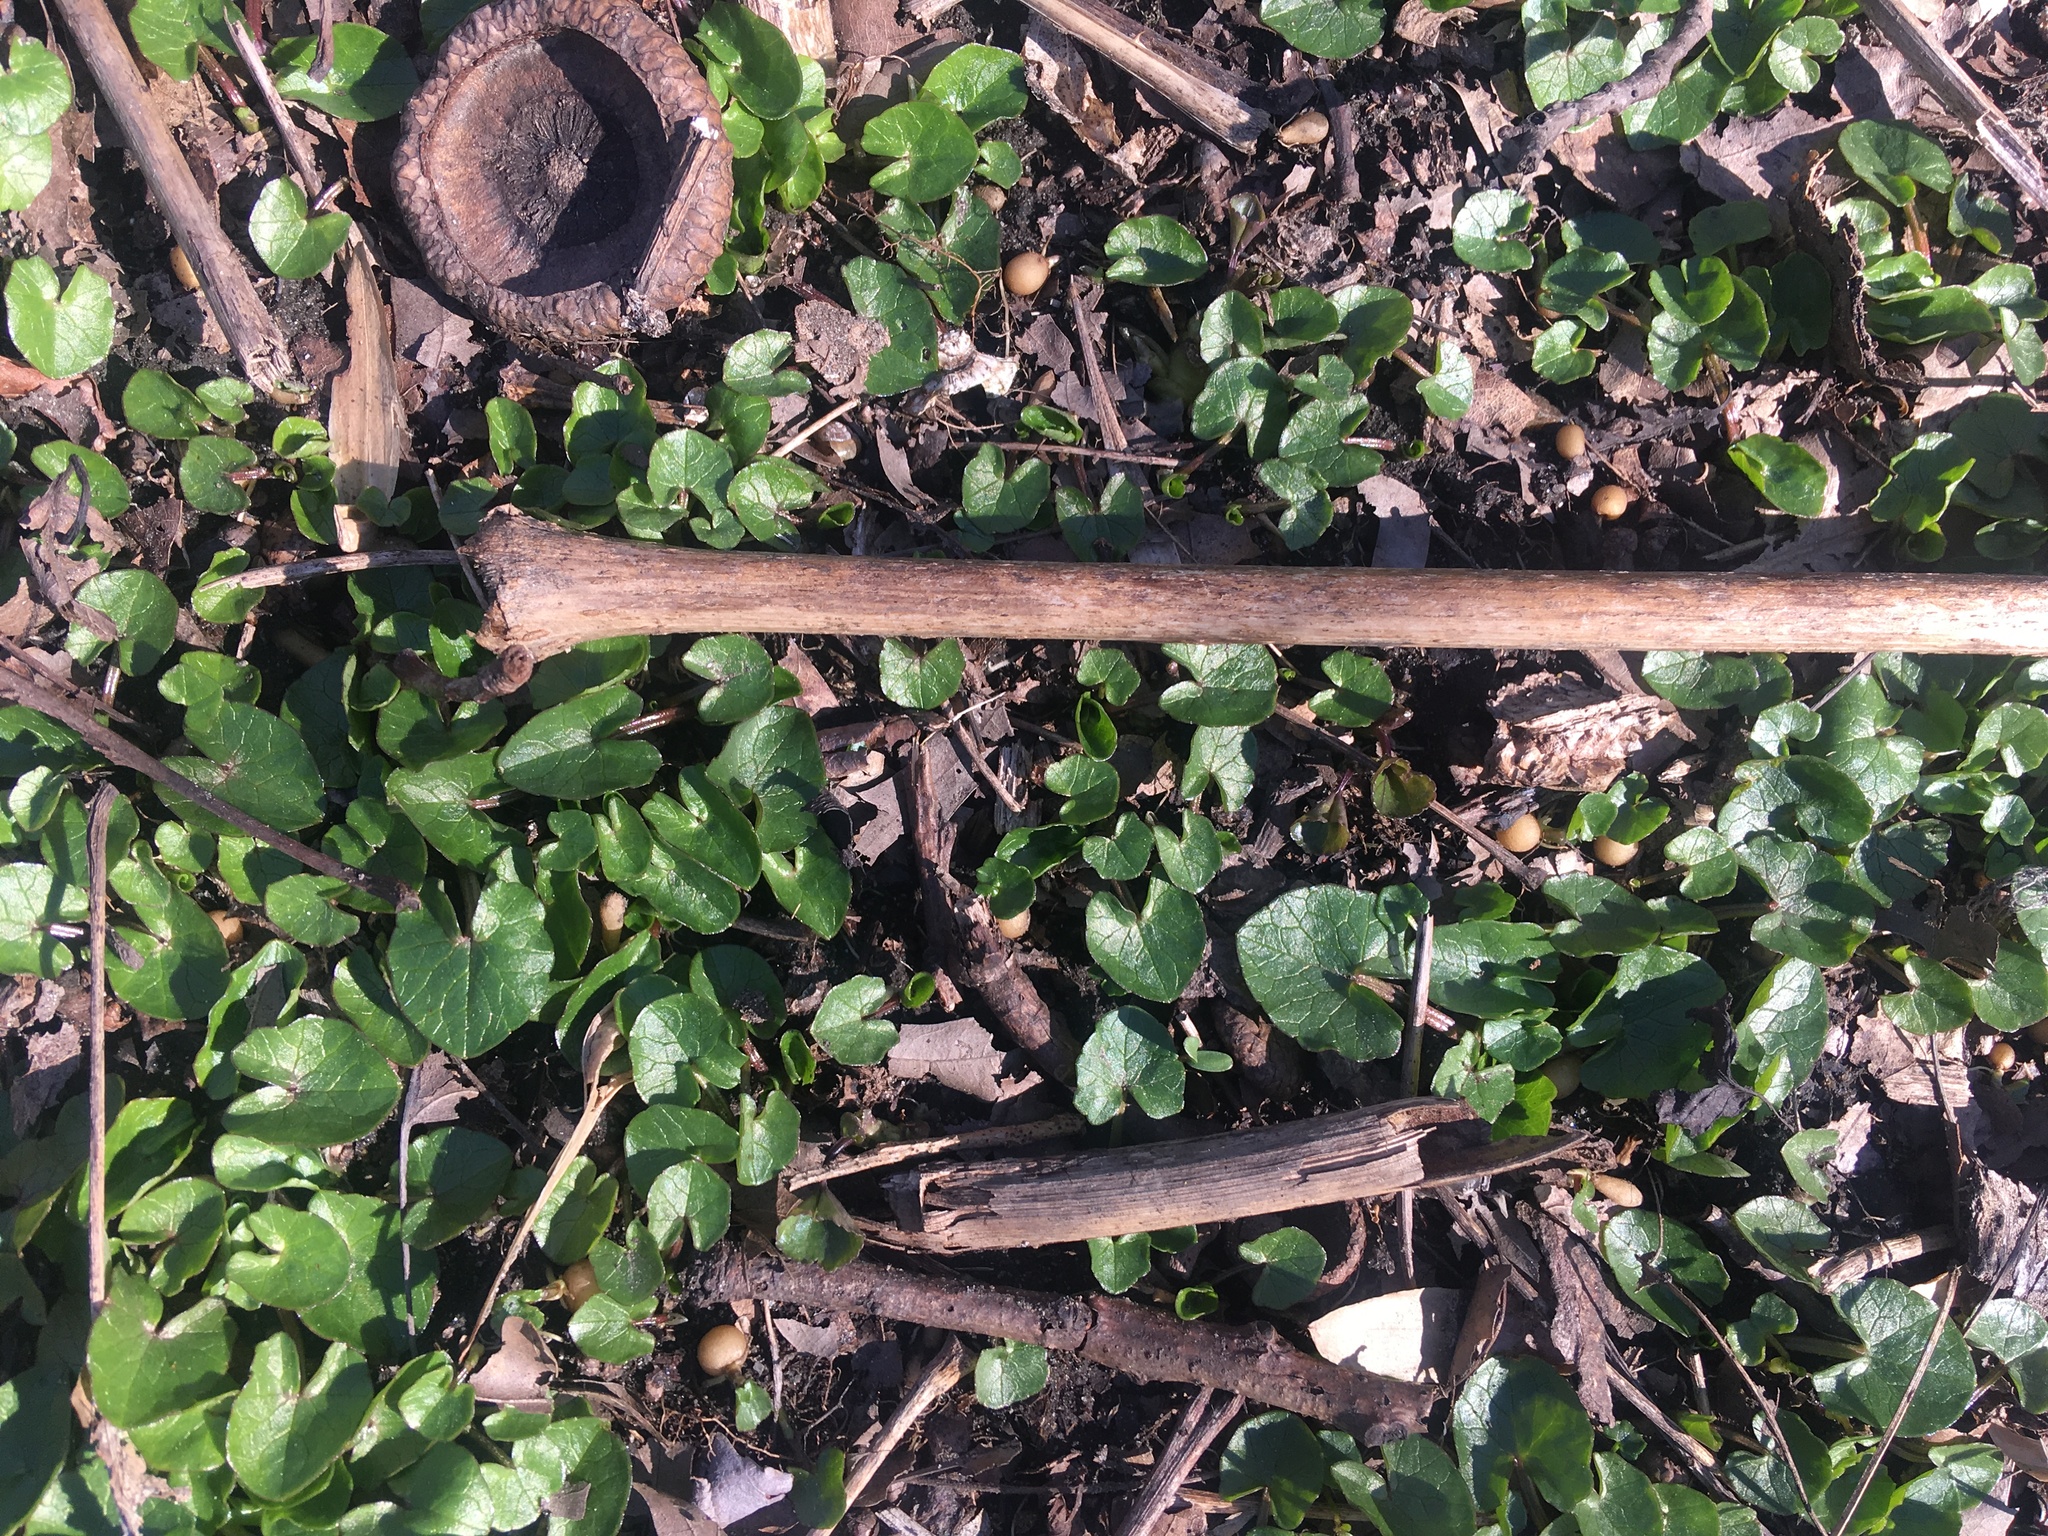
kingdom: Plantae
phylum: Tracheophyta
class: Magnoliopsida
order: Ranunculales
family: Ranunculaceae
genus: Ficaria
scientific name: Ficaria verna
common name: Lesser celandine
